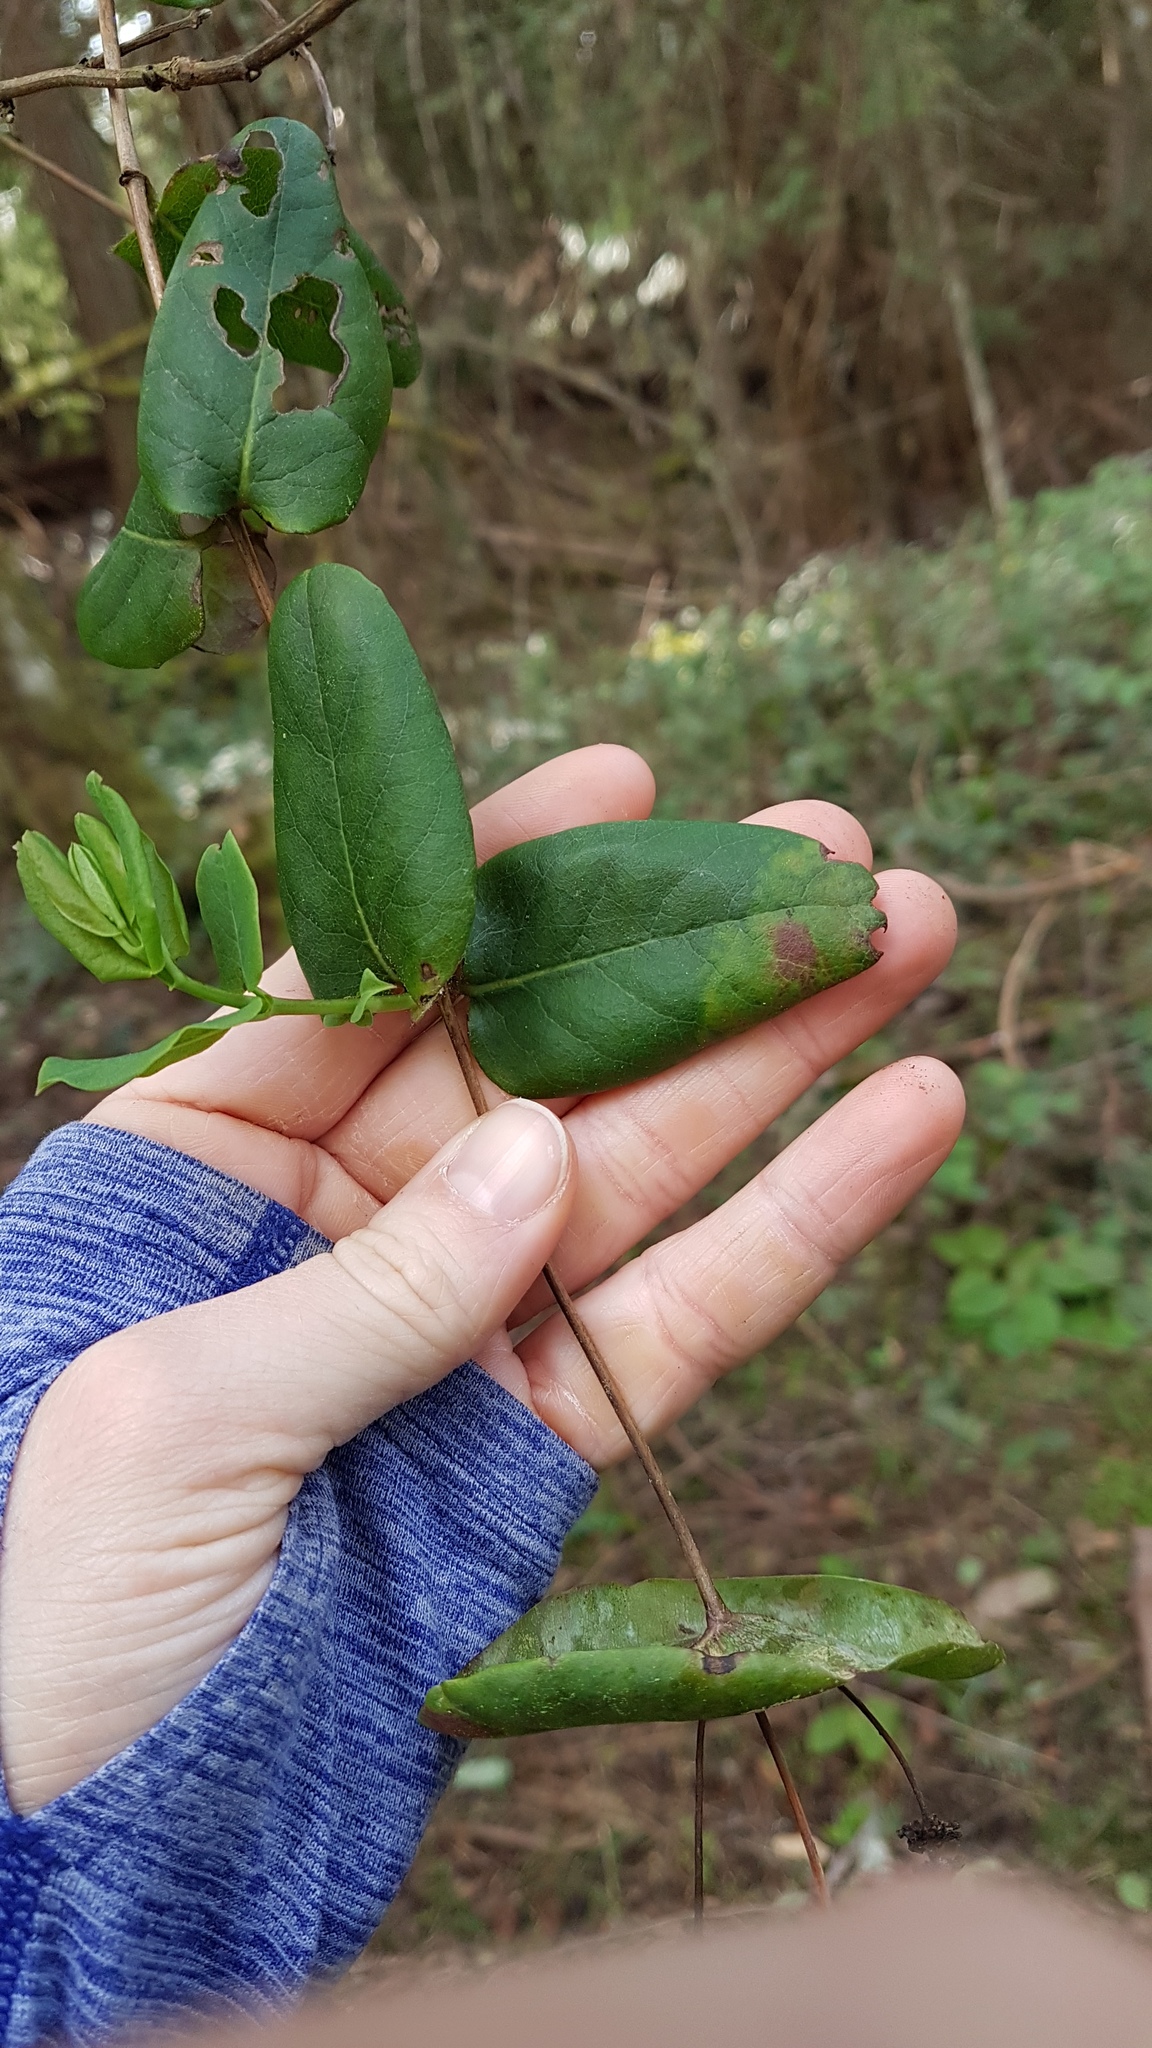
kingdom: Plantae
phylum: Tracheophyta
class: Magnoliopsida
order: Dipsacales
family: Caprifoliaceae
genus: Lonicera
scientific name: Lonicera hispidula
